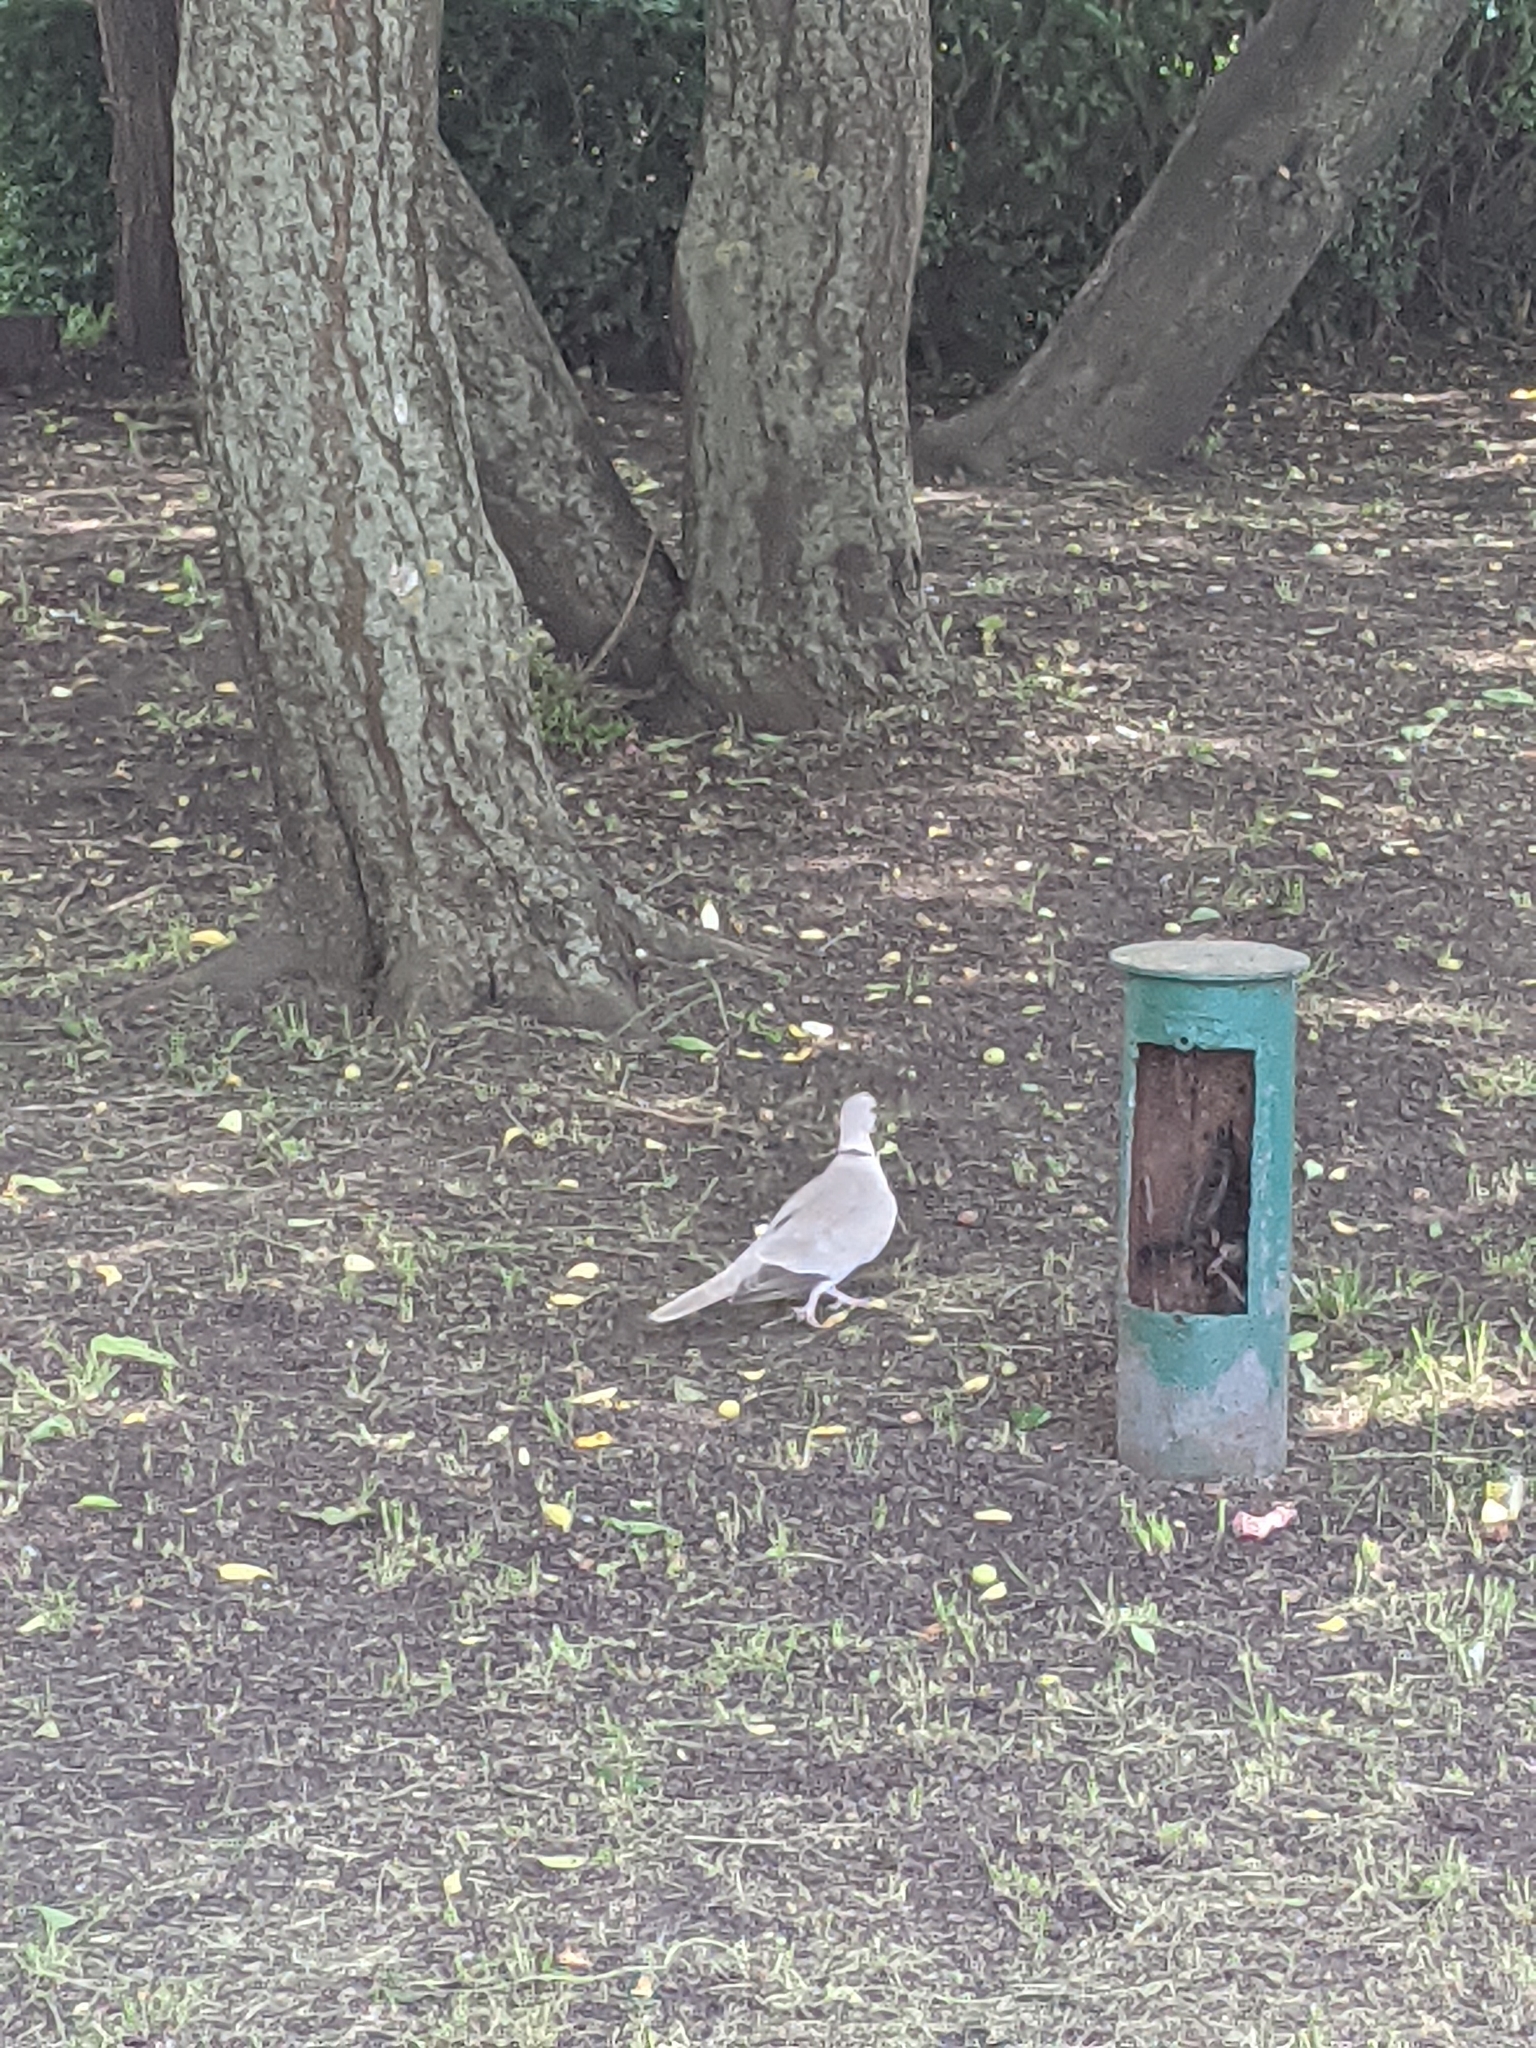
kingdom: Animalia
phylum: Chordata
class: Aves
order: Columbiformes
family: Columbidae
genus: Streptopelia
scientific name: Streptopelia decaocto
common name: Eurasian collared dove
